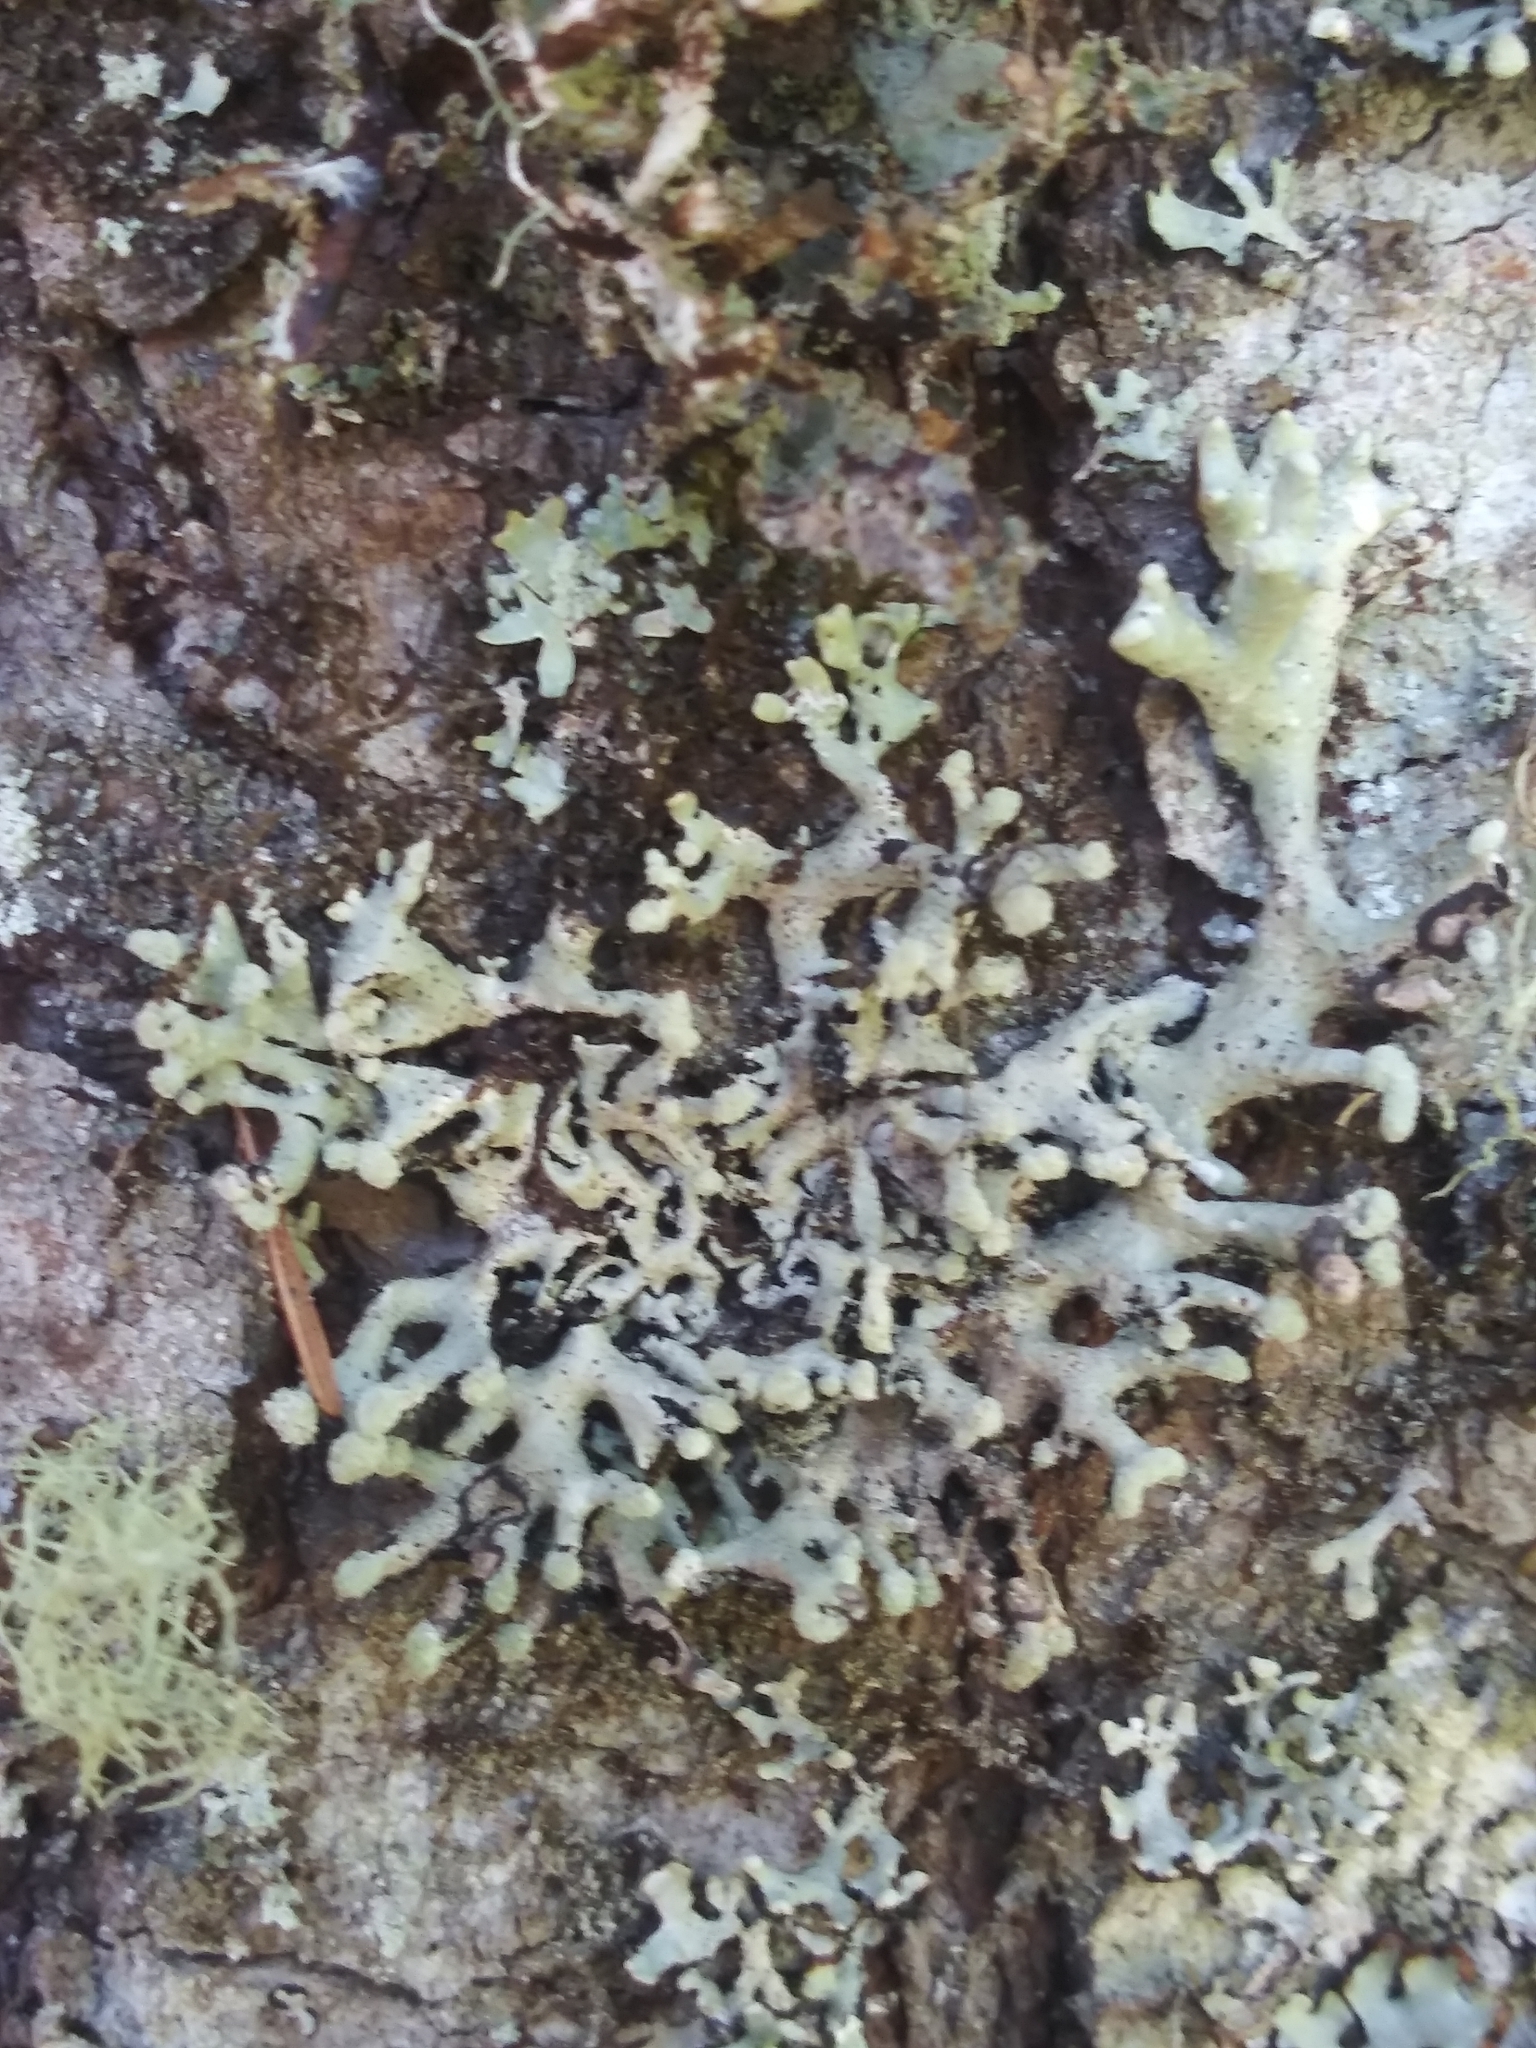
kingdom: Fungi
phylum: Ascomycota
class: Lecanoromycetes
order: Lecanorales
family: Parmeliaceae
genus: Hypogymnia
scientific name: Hypogymnia tubulosa
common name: Powder-headed tube lichen
